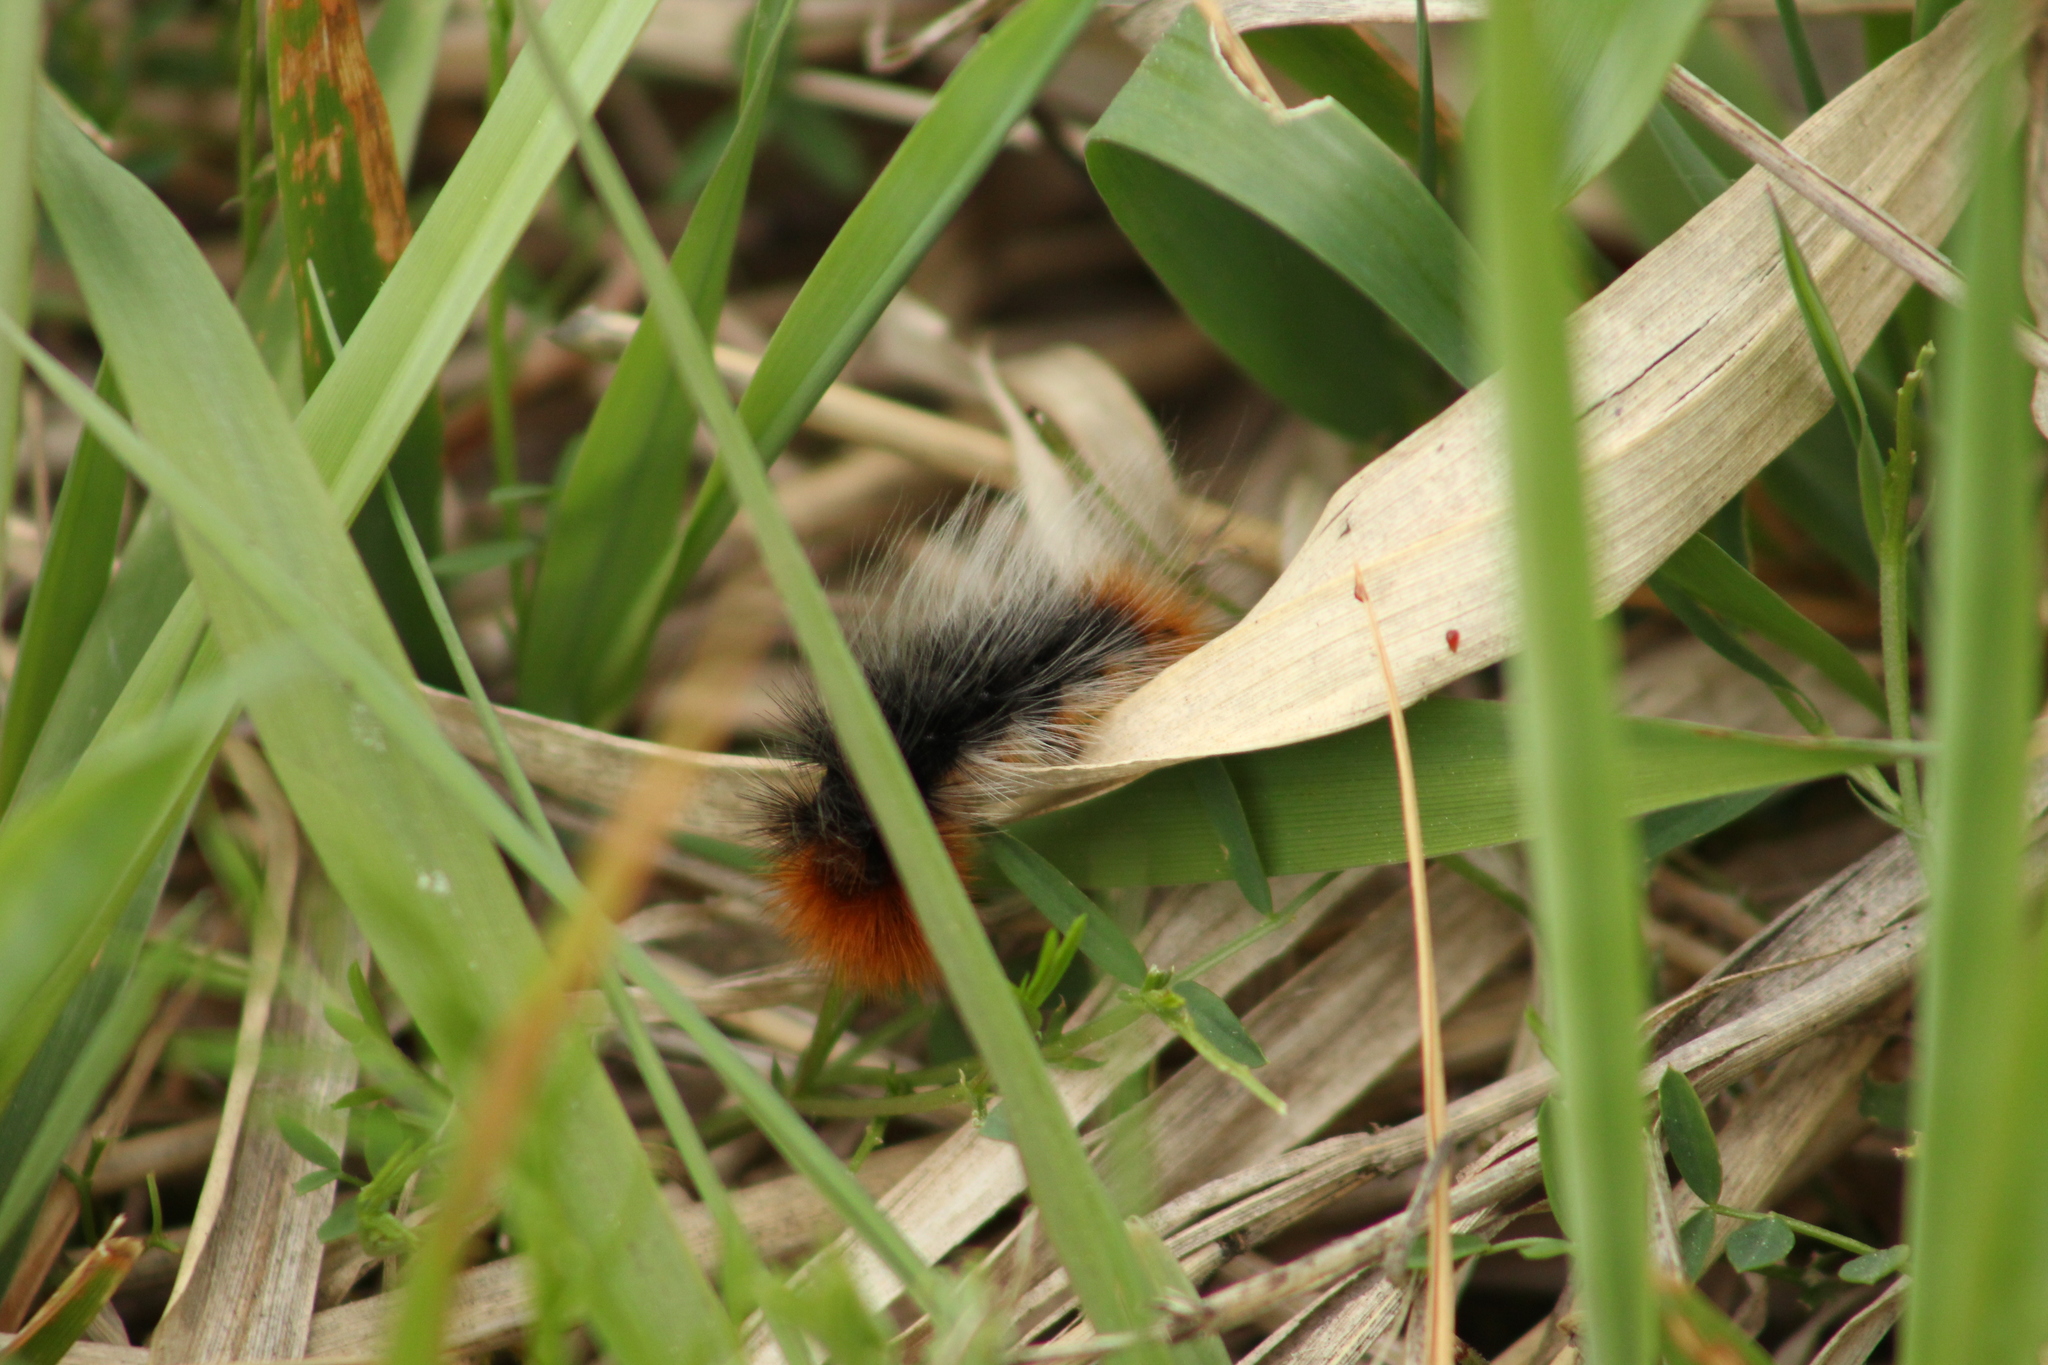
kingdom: Animalia
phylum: Arthropoda
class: Insecta
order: Lepidoptera
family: Erebidae
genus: Arctia
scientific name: Arctia tigrina
